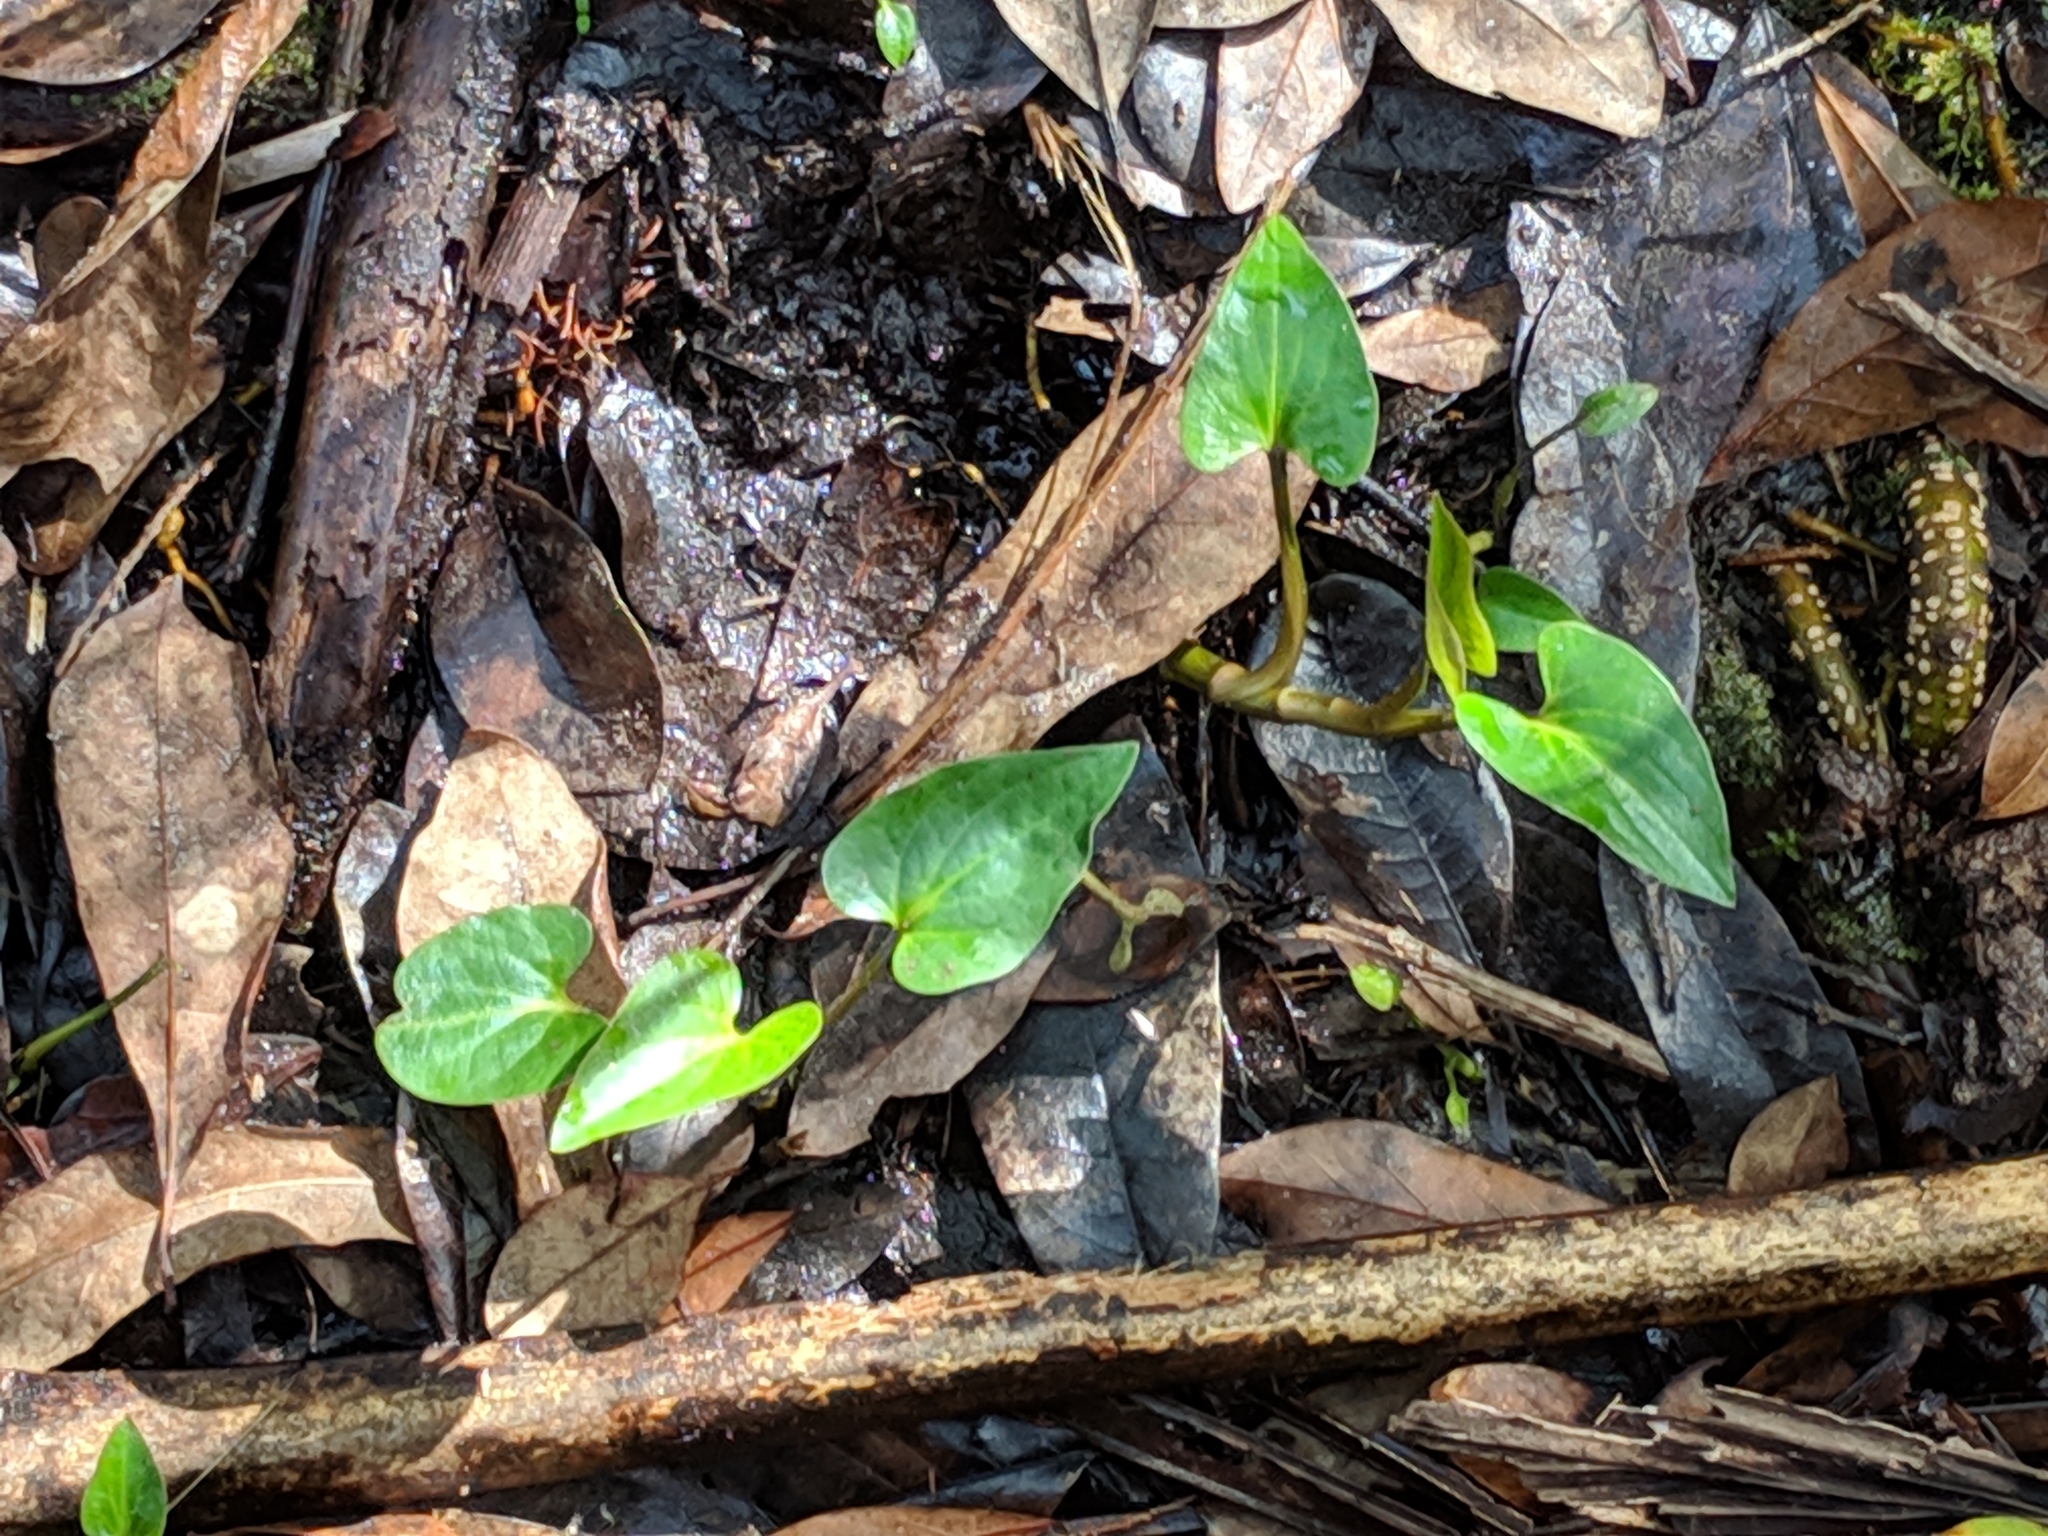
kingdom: Plantae
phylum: Tracheophyta
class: Magnoliopsida
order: Piperales
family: Saururaceae
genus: Saururus
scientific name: Saururus cernuus
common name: Lizard's-tail
